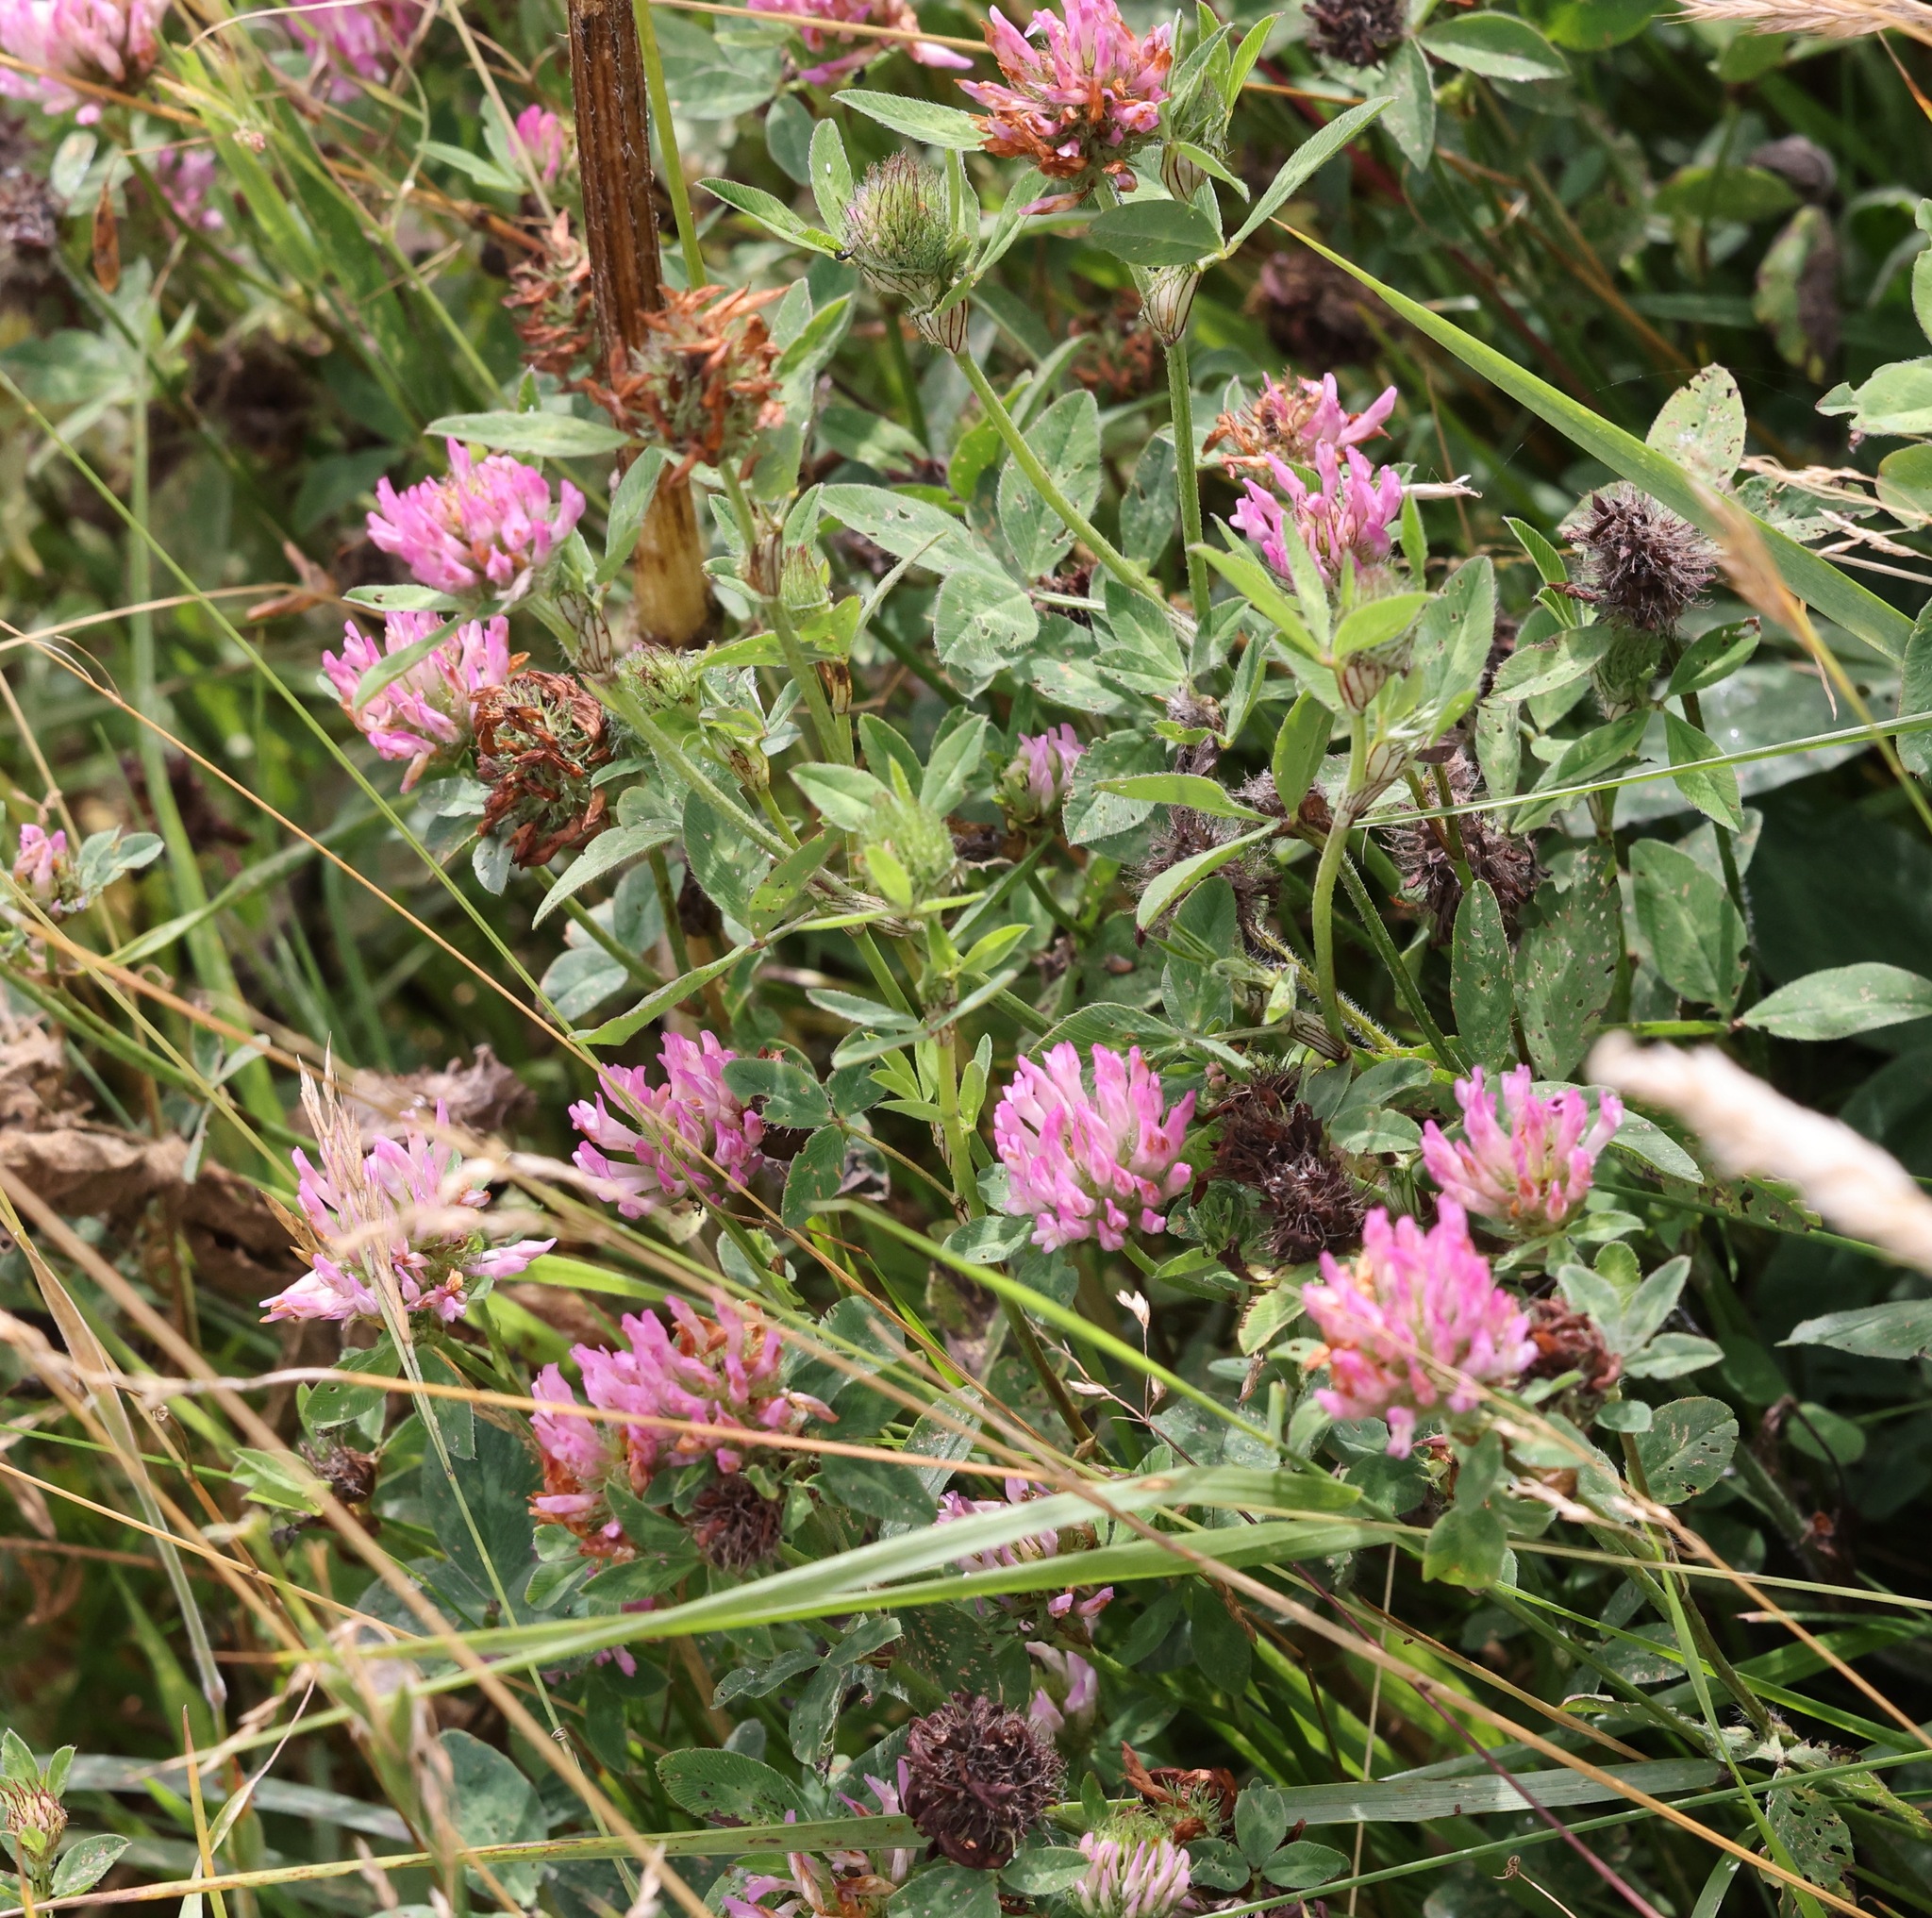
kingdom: Plantae
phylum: Tracheophyta
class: Magnoliopsida
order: Fabales
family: Fabaceae
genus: Trifolium
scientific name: Trifolium pratense
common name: Red clover
